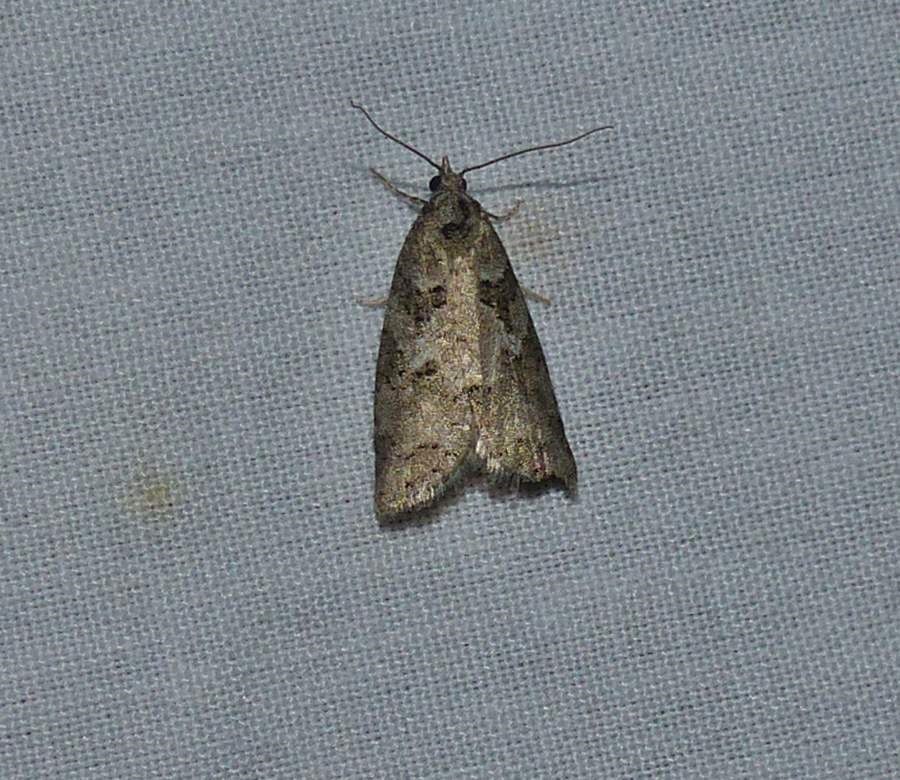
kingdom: Animalia
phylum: Arthropoda
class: Insecta
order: Lepidoptera
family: Tortricidae
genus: Cnephasia
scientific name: Cnephasia stephensiana
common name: Grey tortrix
